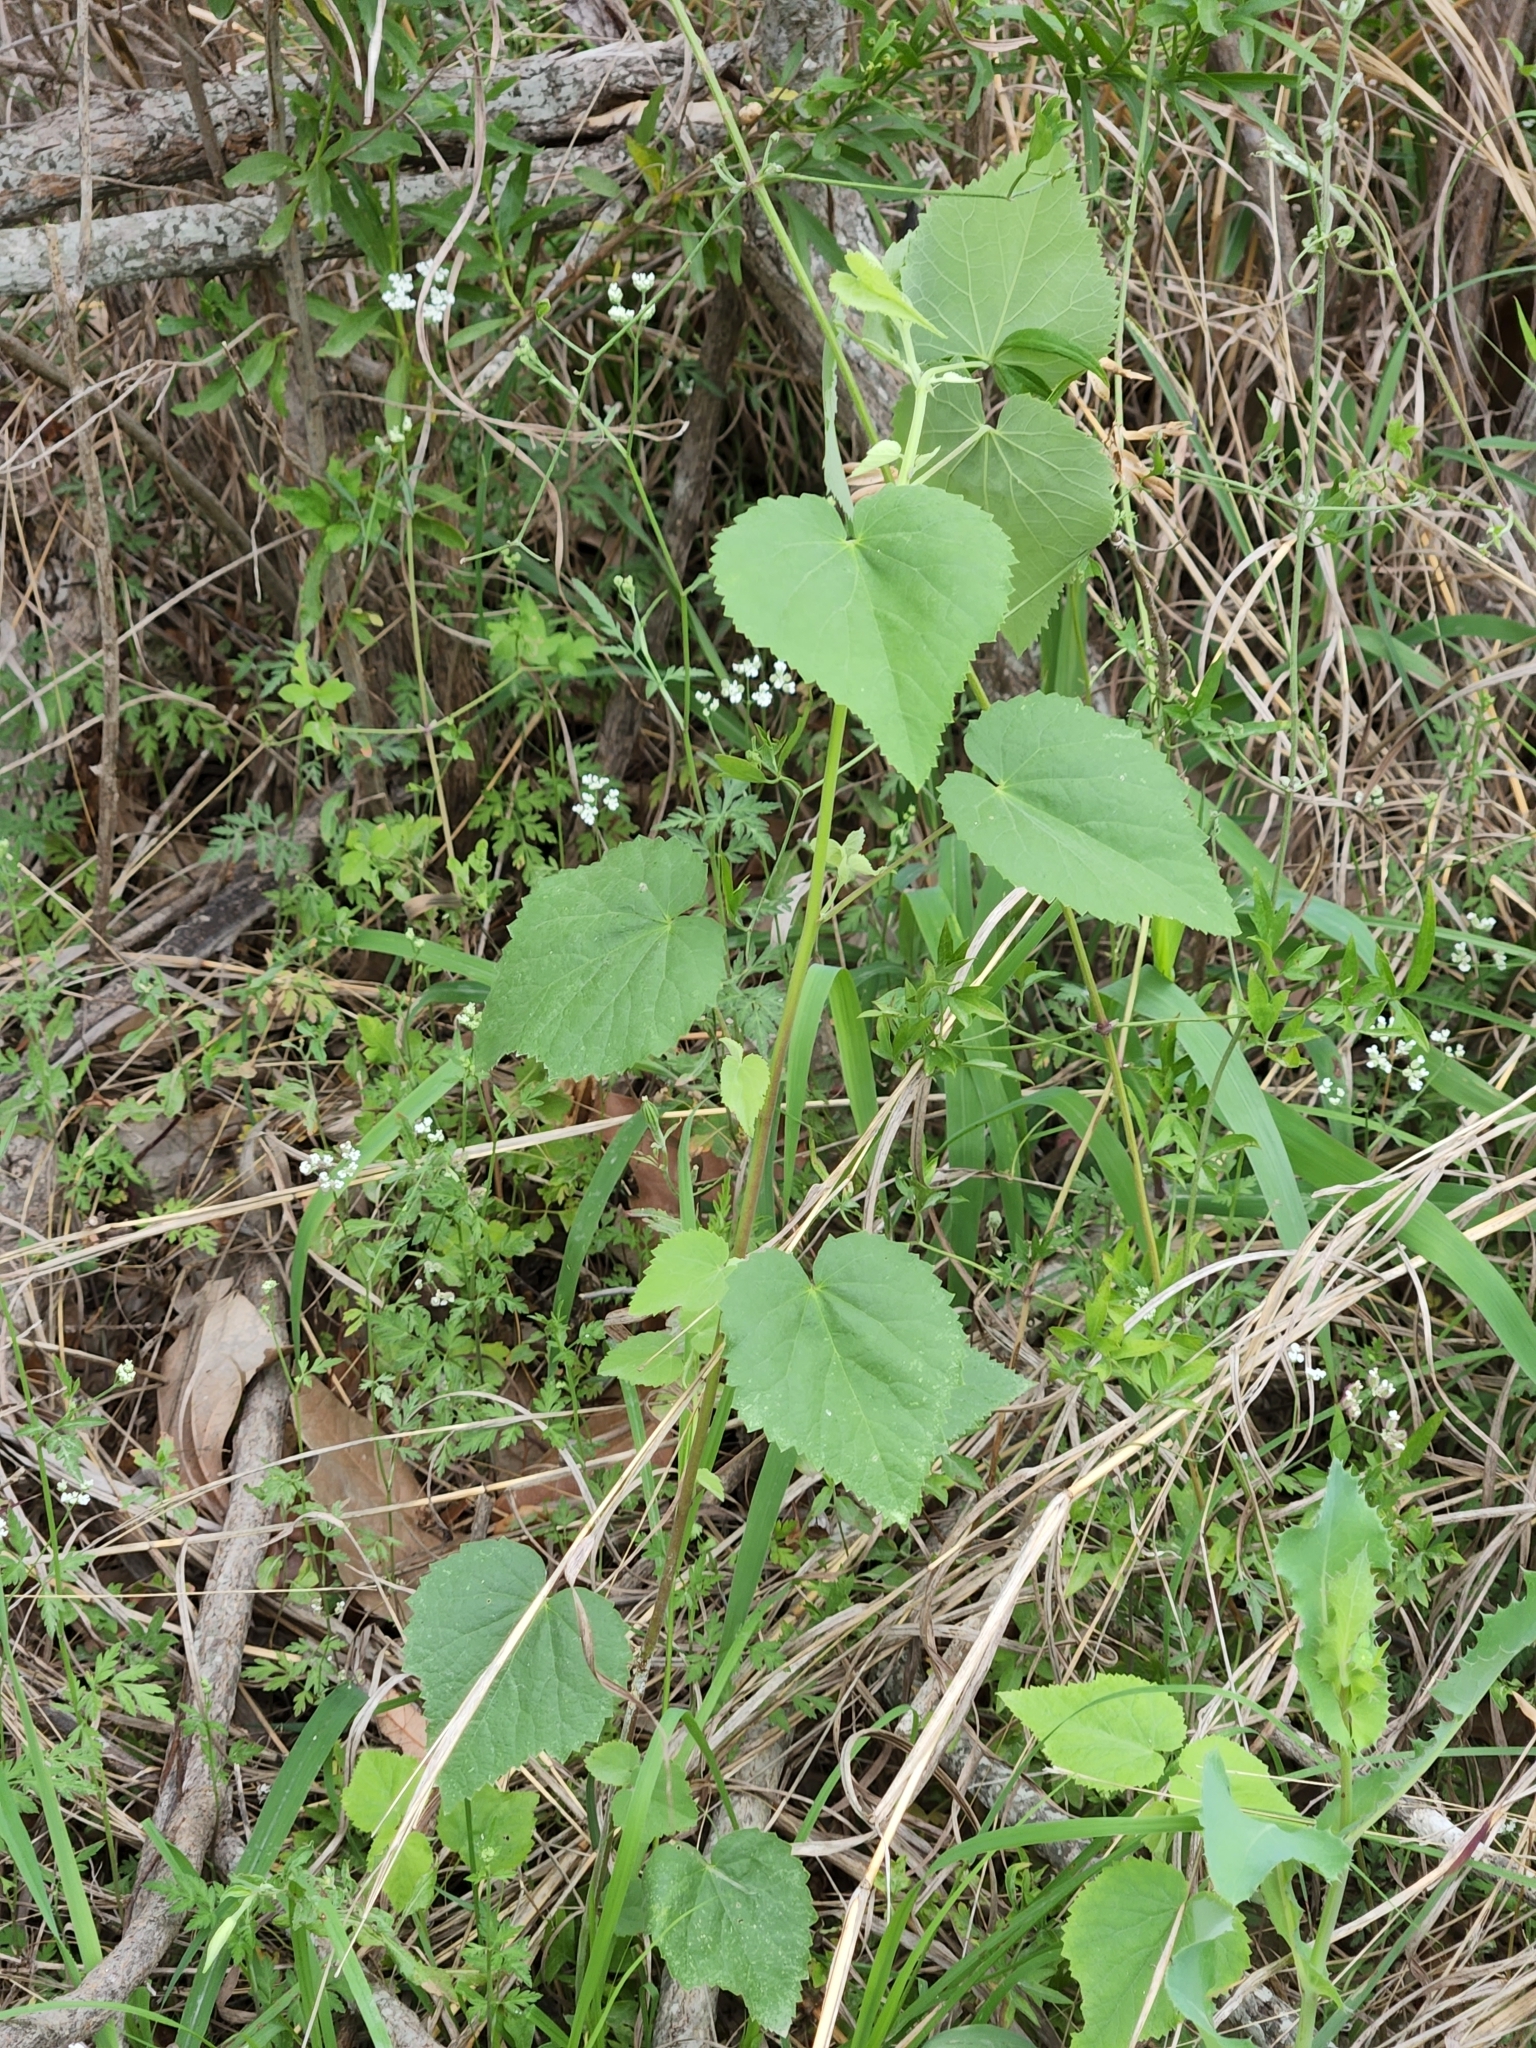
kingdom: Plantae
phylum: Tracheophyta
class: Magnoliopsida
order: Malvales
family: Malvaceae
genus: Abutilon
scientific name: Abutilon fruticosum
